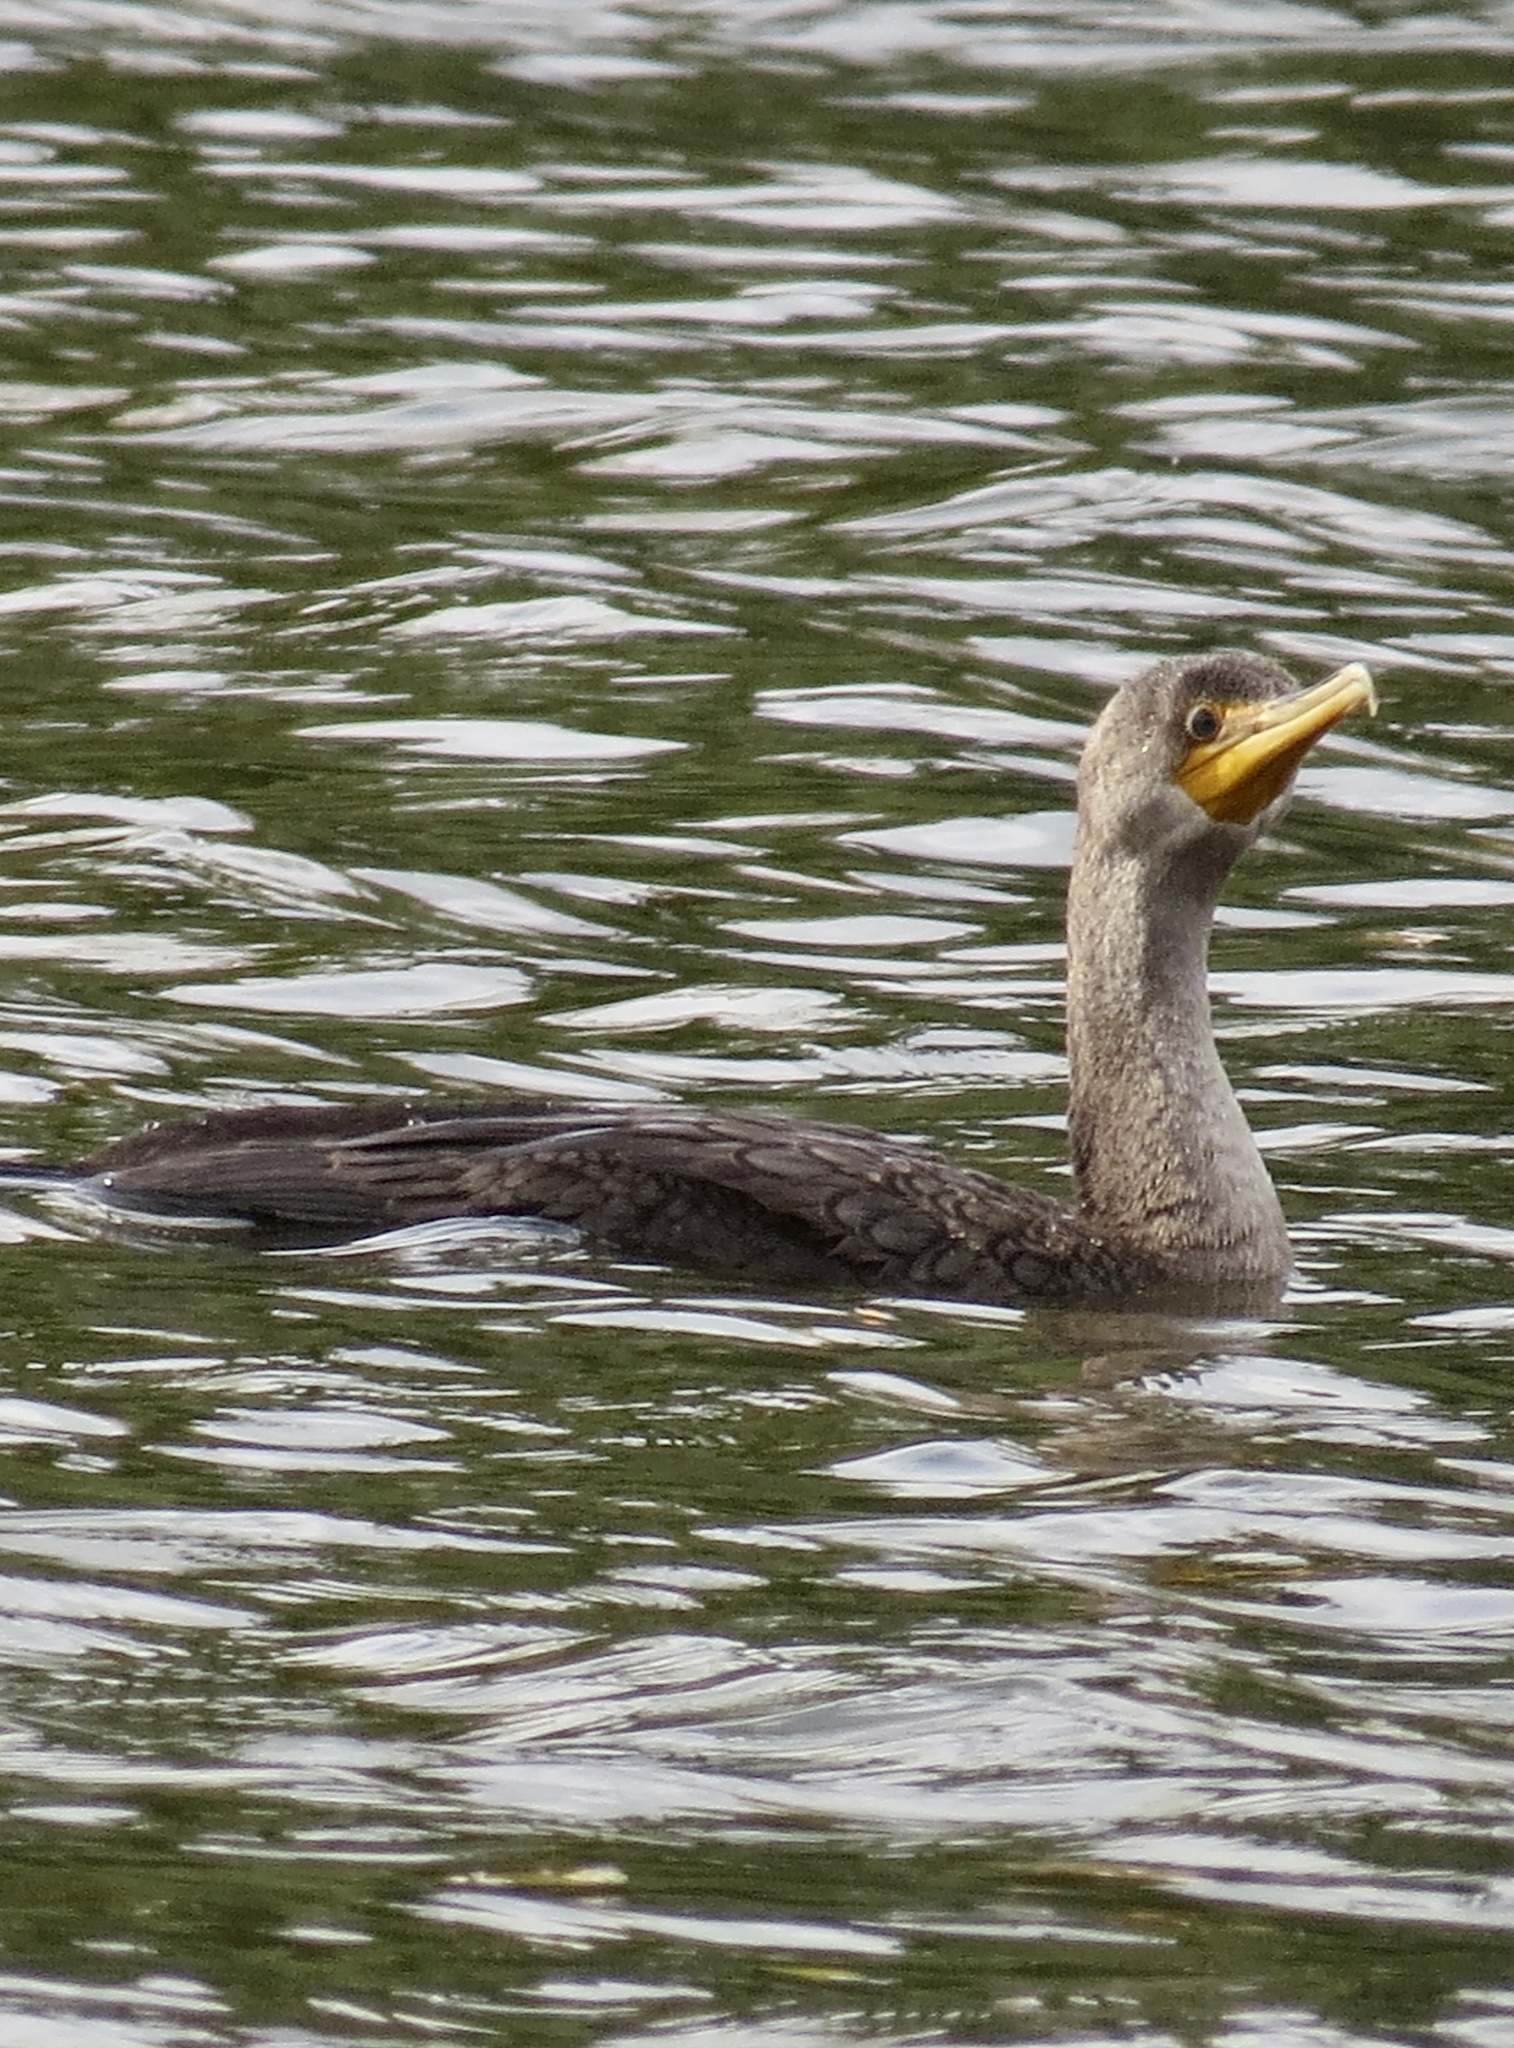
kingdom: Animalia
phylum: Chordata
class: Aves
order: Suliformes
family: Phalacrocoracidae
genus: Phalacrocorax
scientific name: Phalacrocorax auritus
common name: Double-crested cormorant
